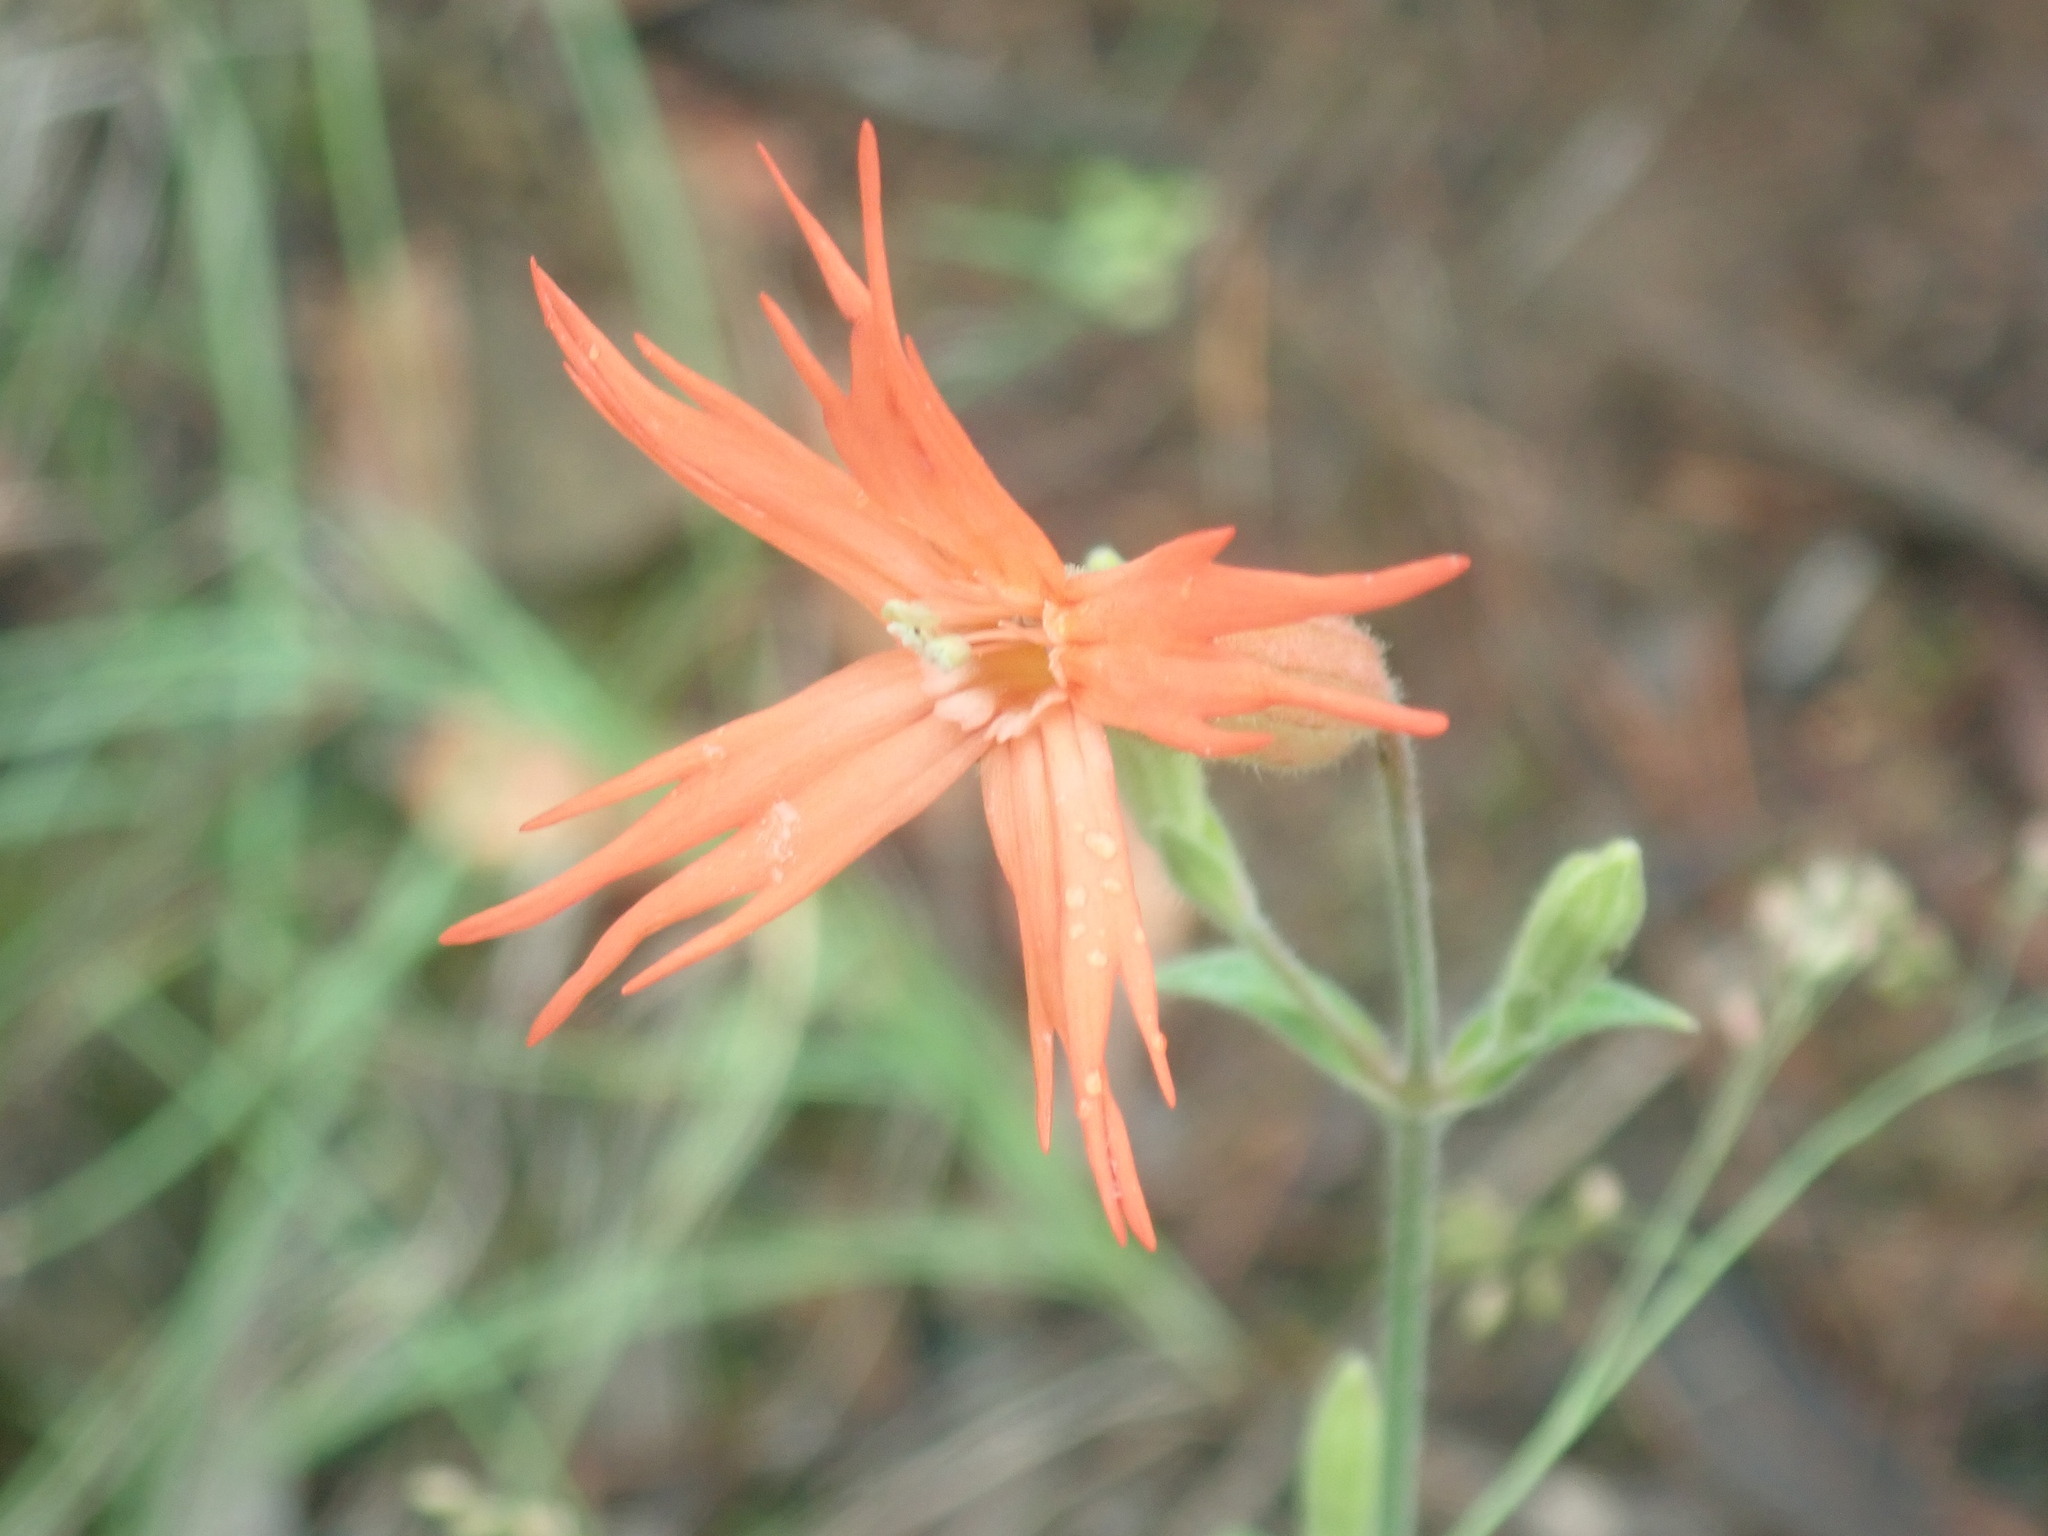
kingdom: Plantae
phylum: Tracheophyta
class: Magnoliopsida
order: Caryophyllales
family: Caryophyllaceae
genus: Silene
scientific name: Silene laciniata
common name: Indian-pink
